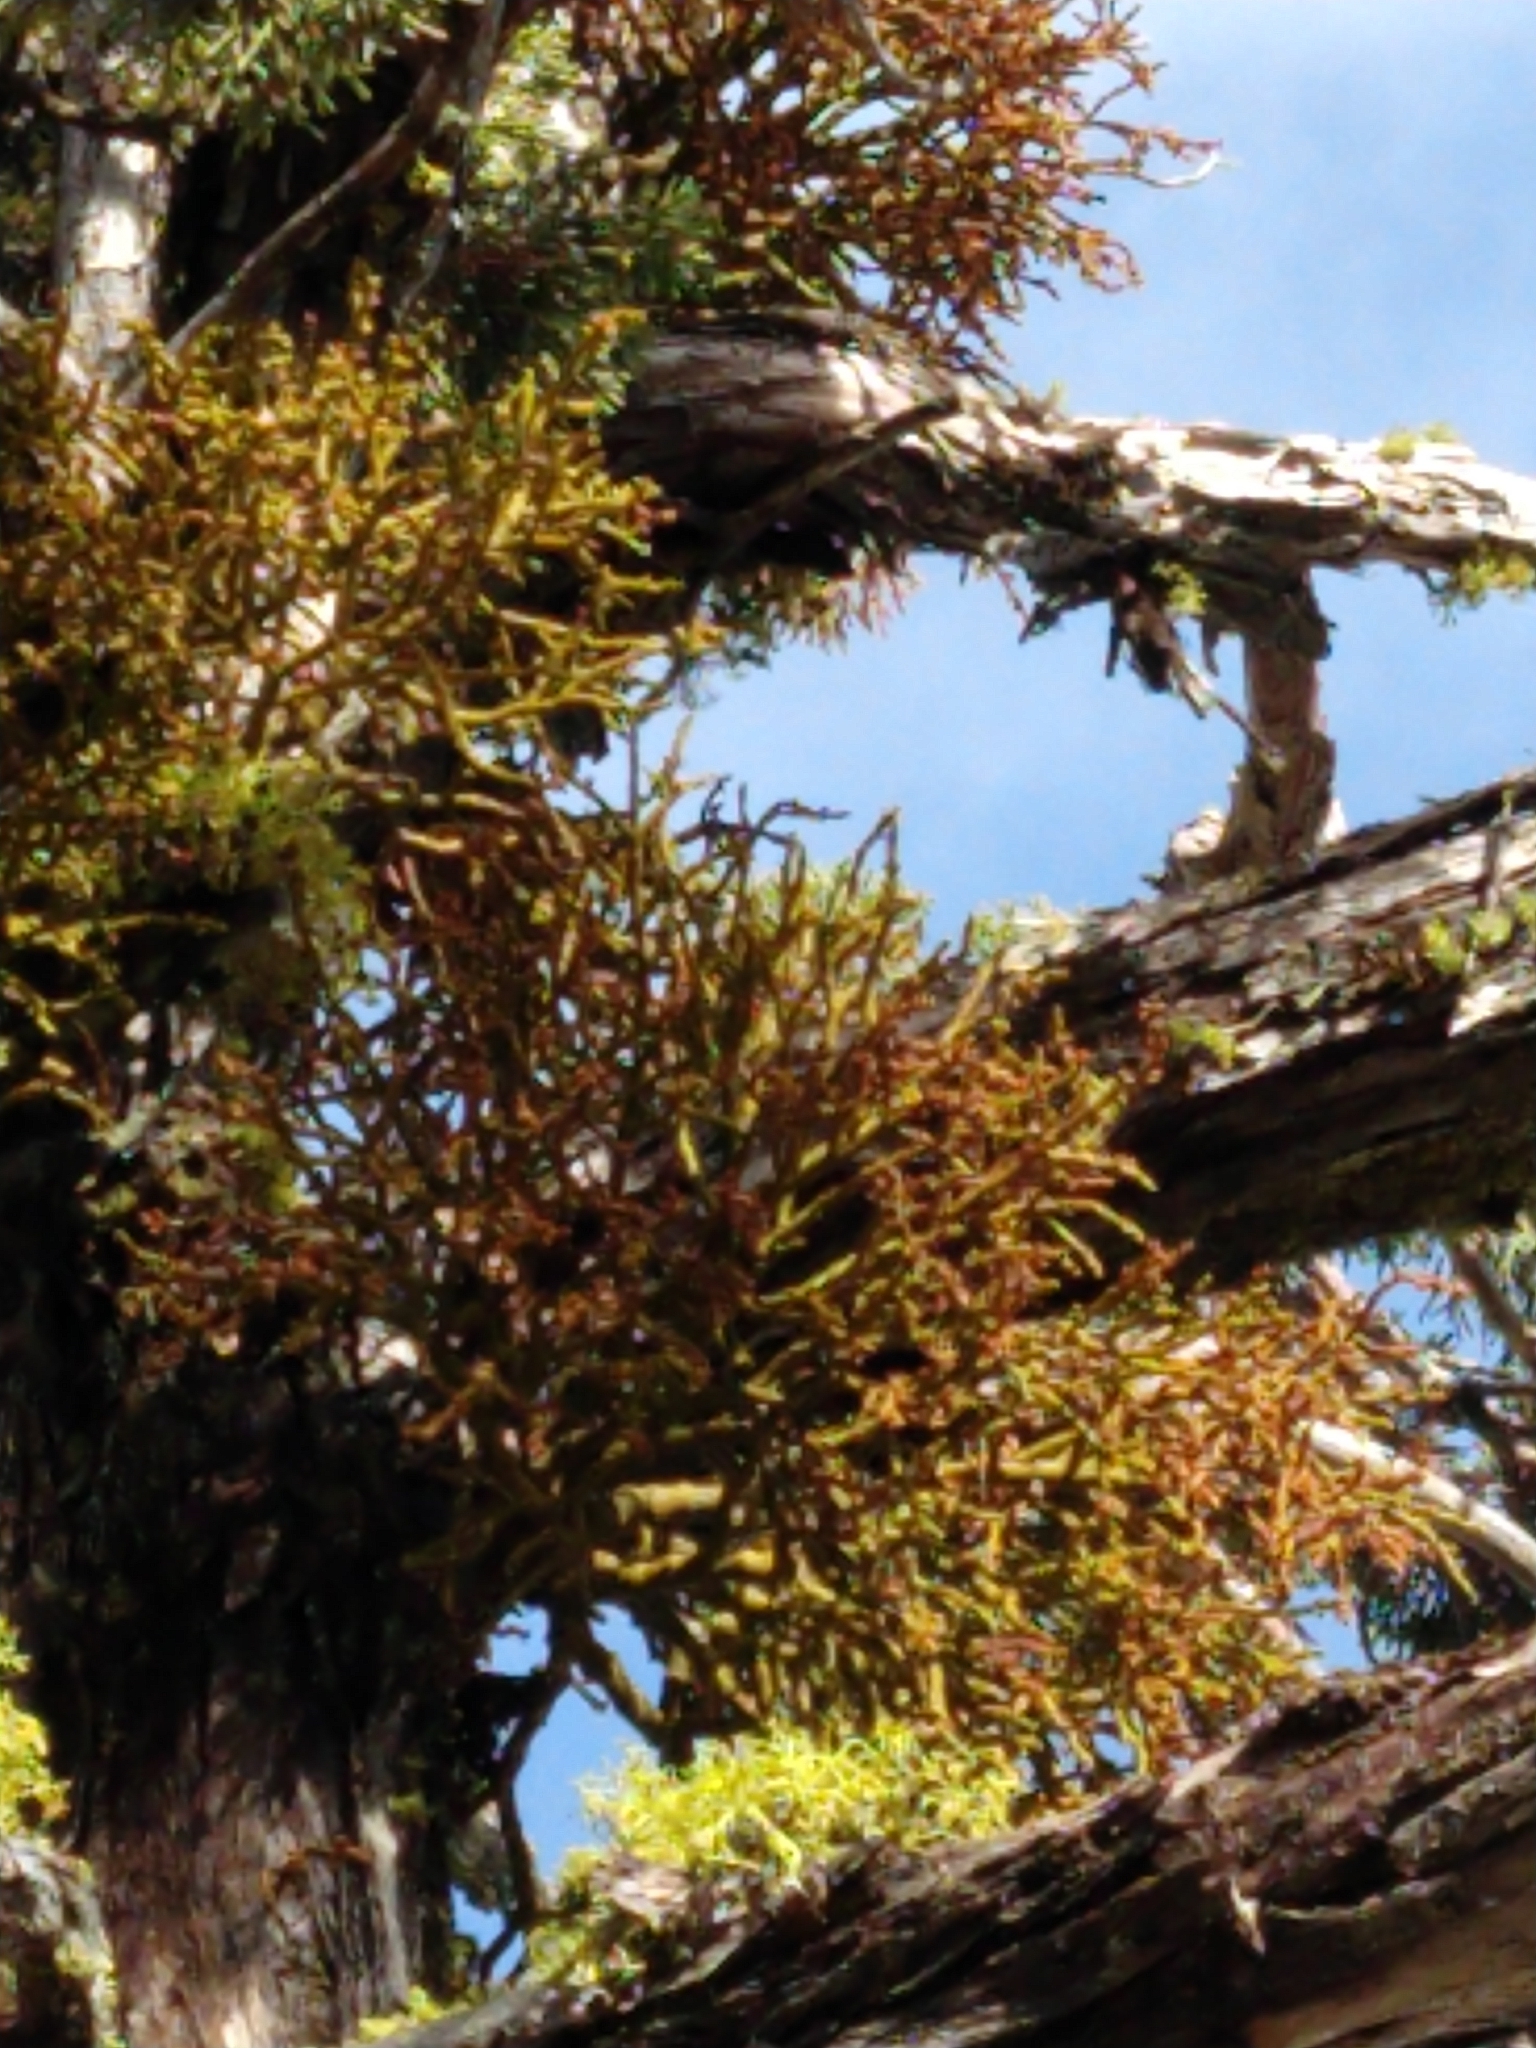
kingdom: Plantae
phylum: Tracheophyta
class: Magnoliopsida
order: Santalales
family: Viscaceae
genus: Phoradendron
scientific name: Phoradendron juniperinum
